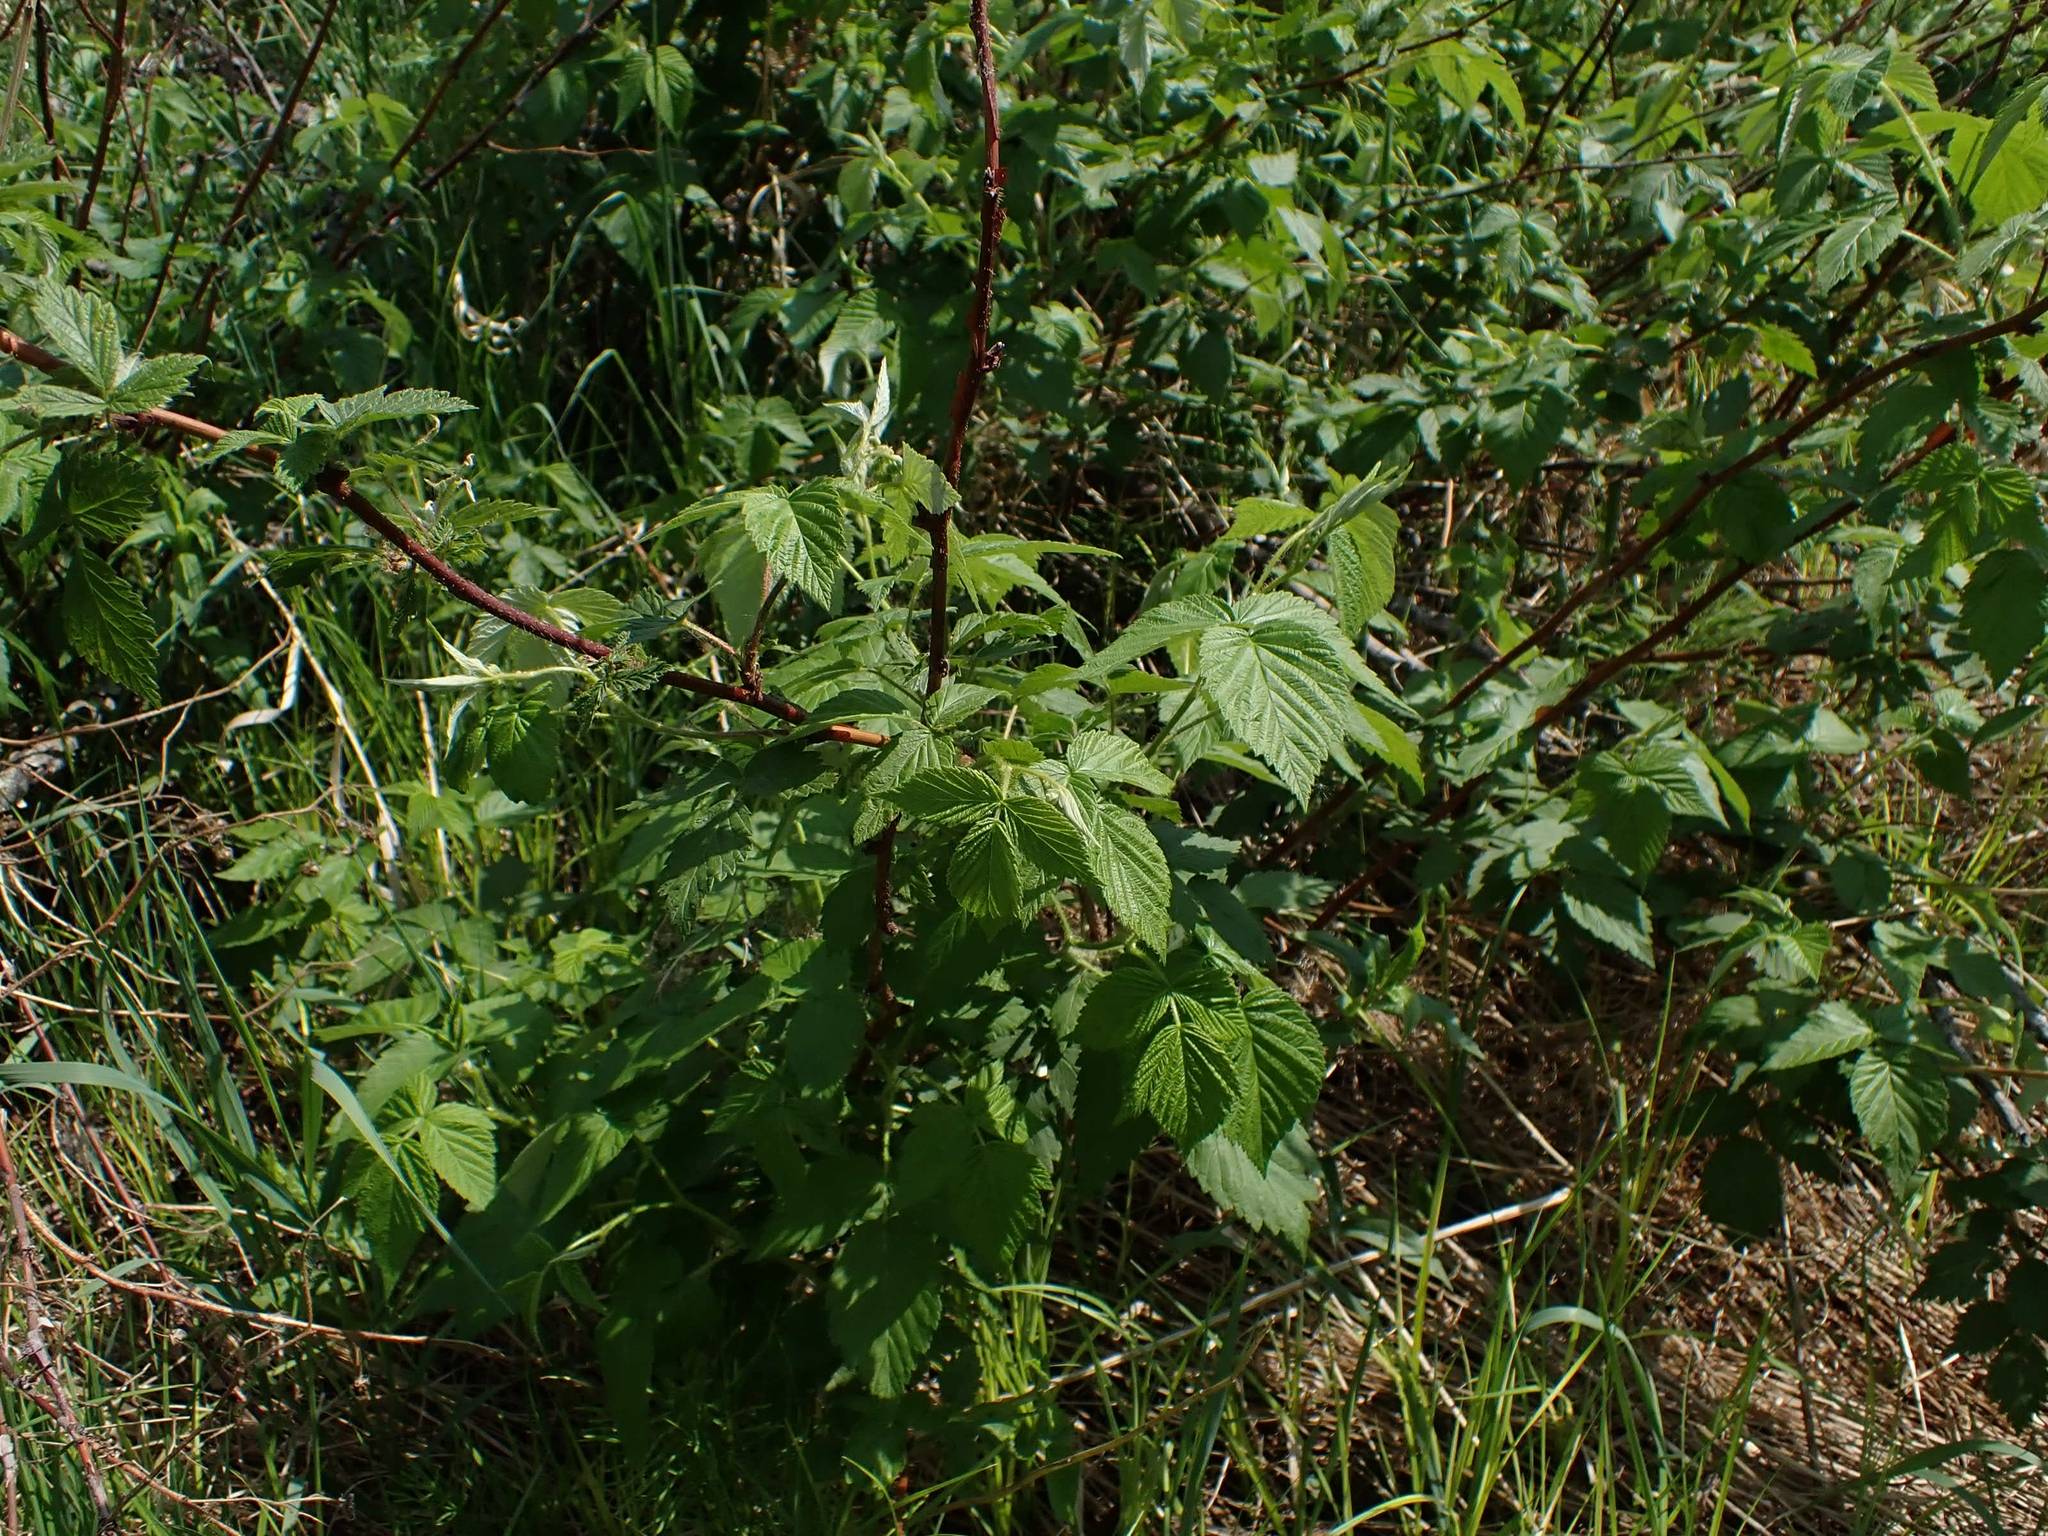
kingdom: Plantae
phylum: Tracheophyta
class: Magnoliopsida
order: Rosales
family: Rosaceae
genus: Rubus
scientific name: Rubus idaeus
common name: Raspberry
